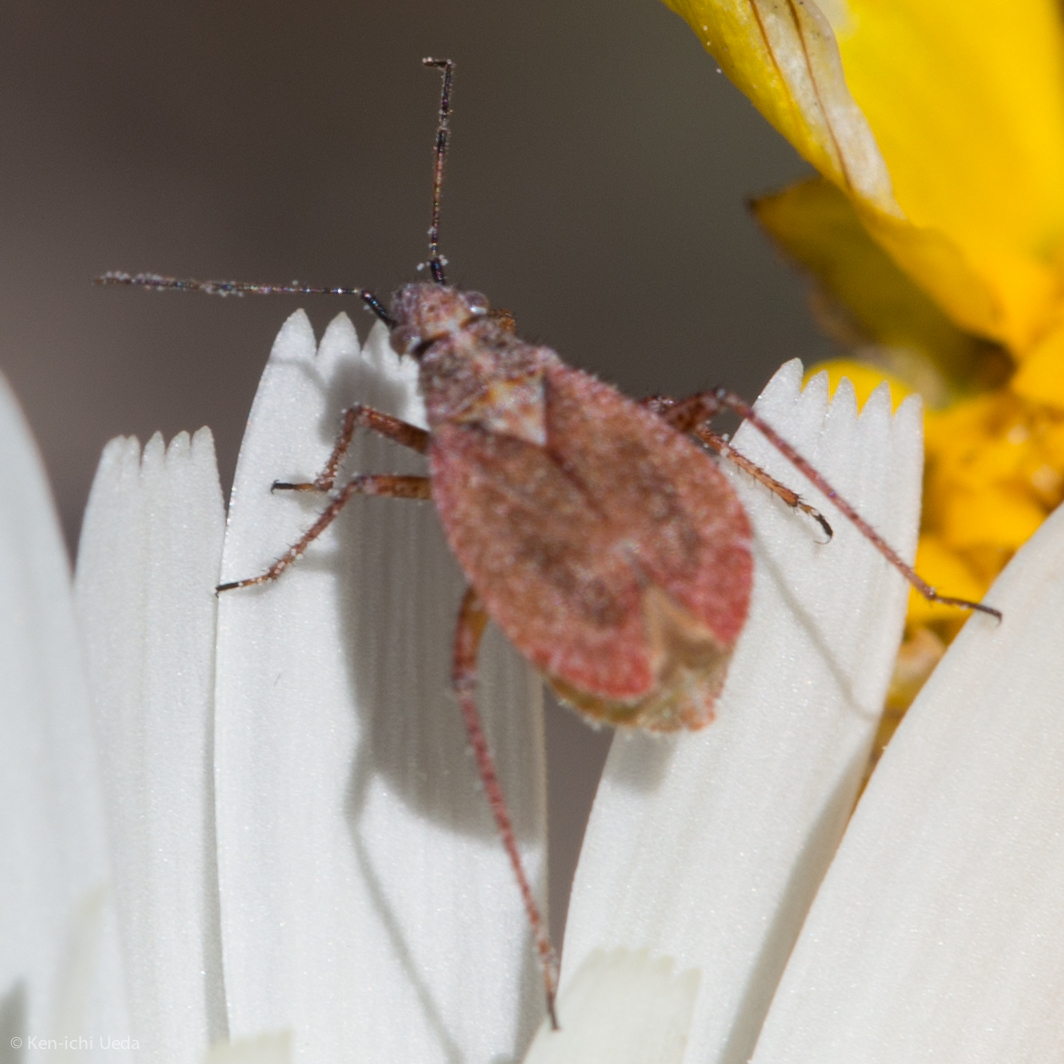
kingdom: Animalia
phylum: Arthropoda
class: Insecta
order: Hemiptera
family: Miridae
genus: Hoplomachidea
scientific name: Hoplomachidea consors
